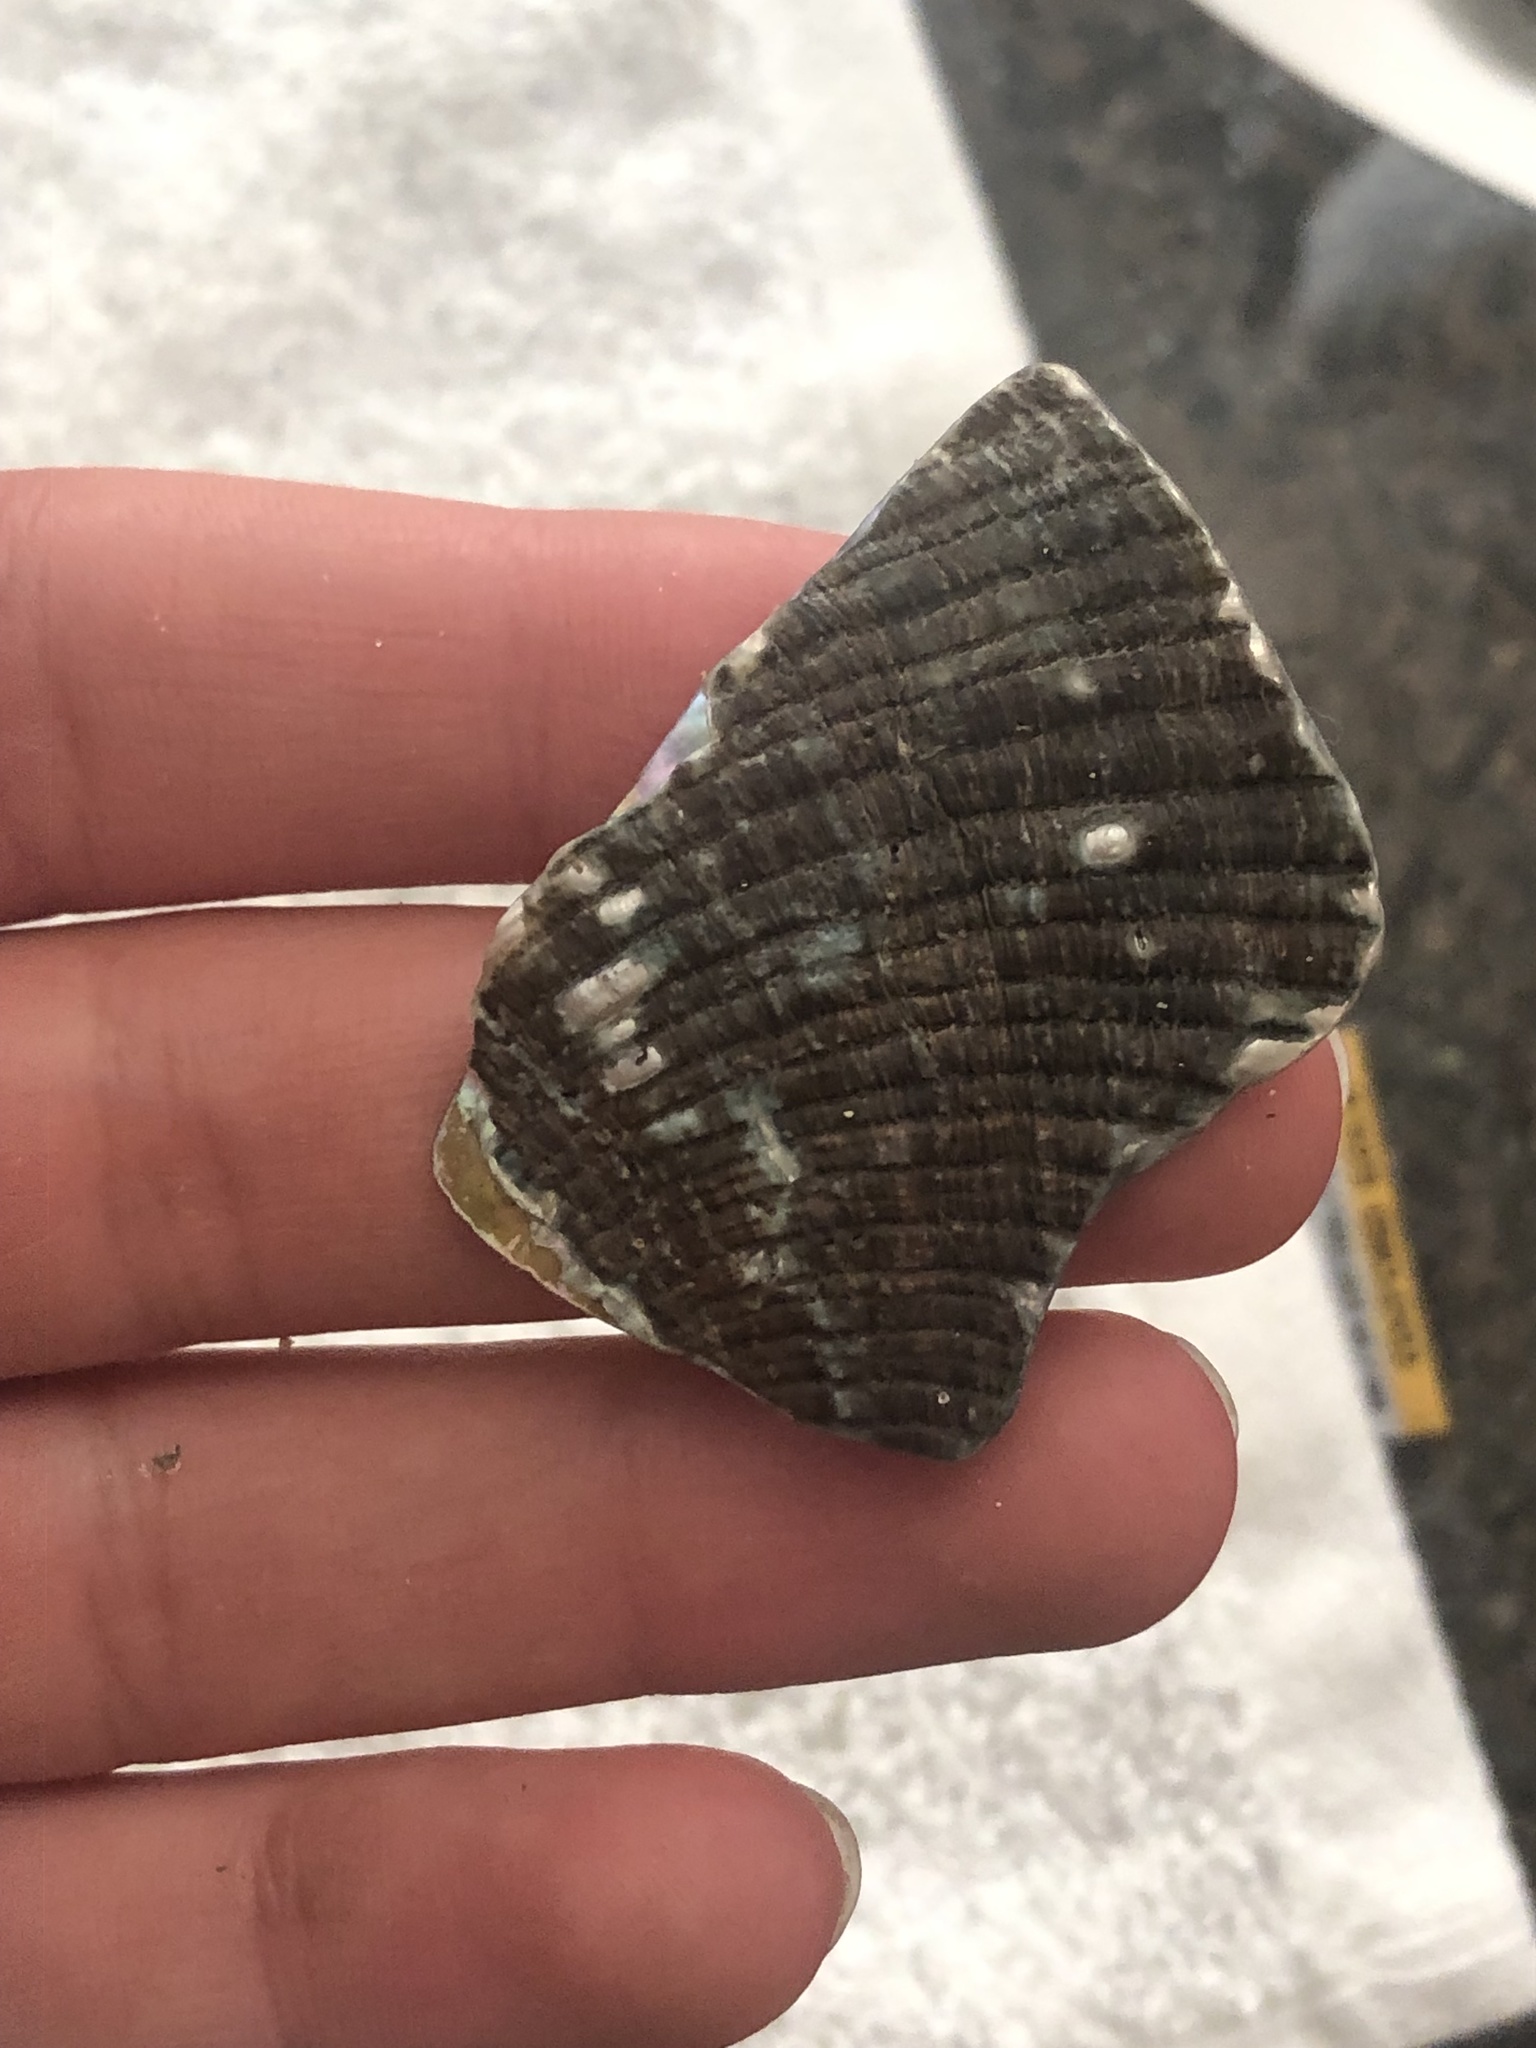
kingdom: Animalia
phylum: Mollusca
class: Gastropoda
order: Lepetellida
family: Haliotidae
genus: Haliotis
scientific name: Haliotis fulgens
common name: Green abalone
